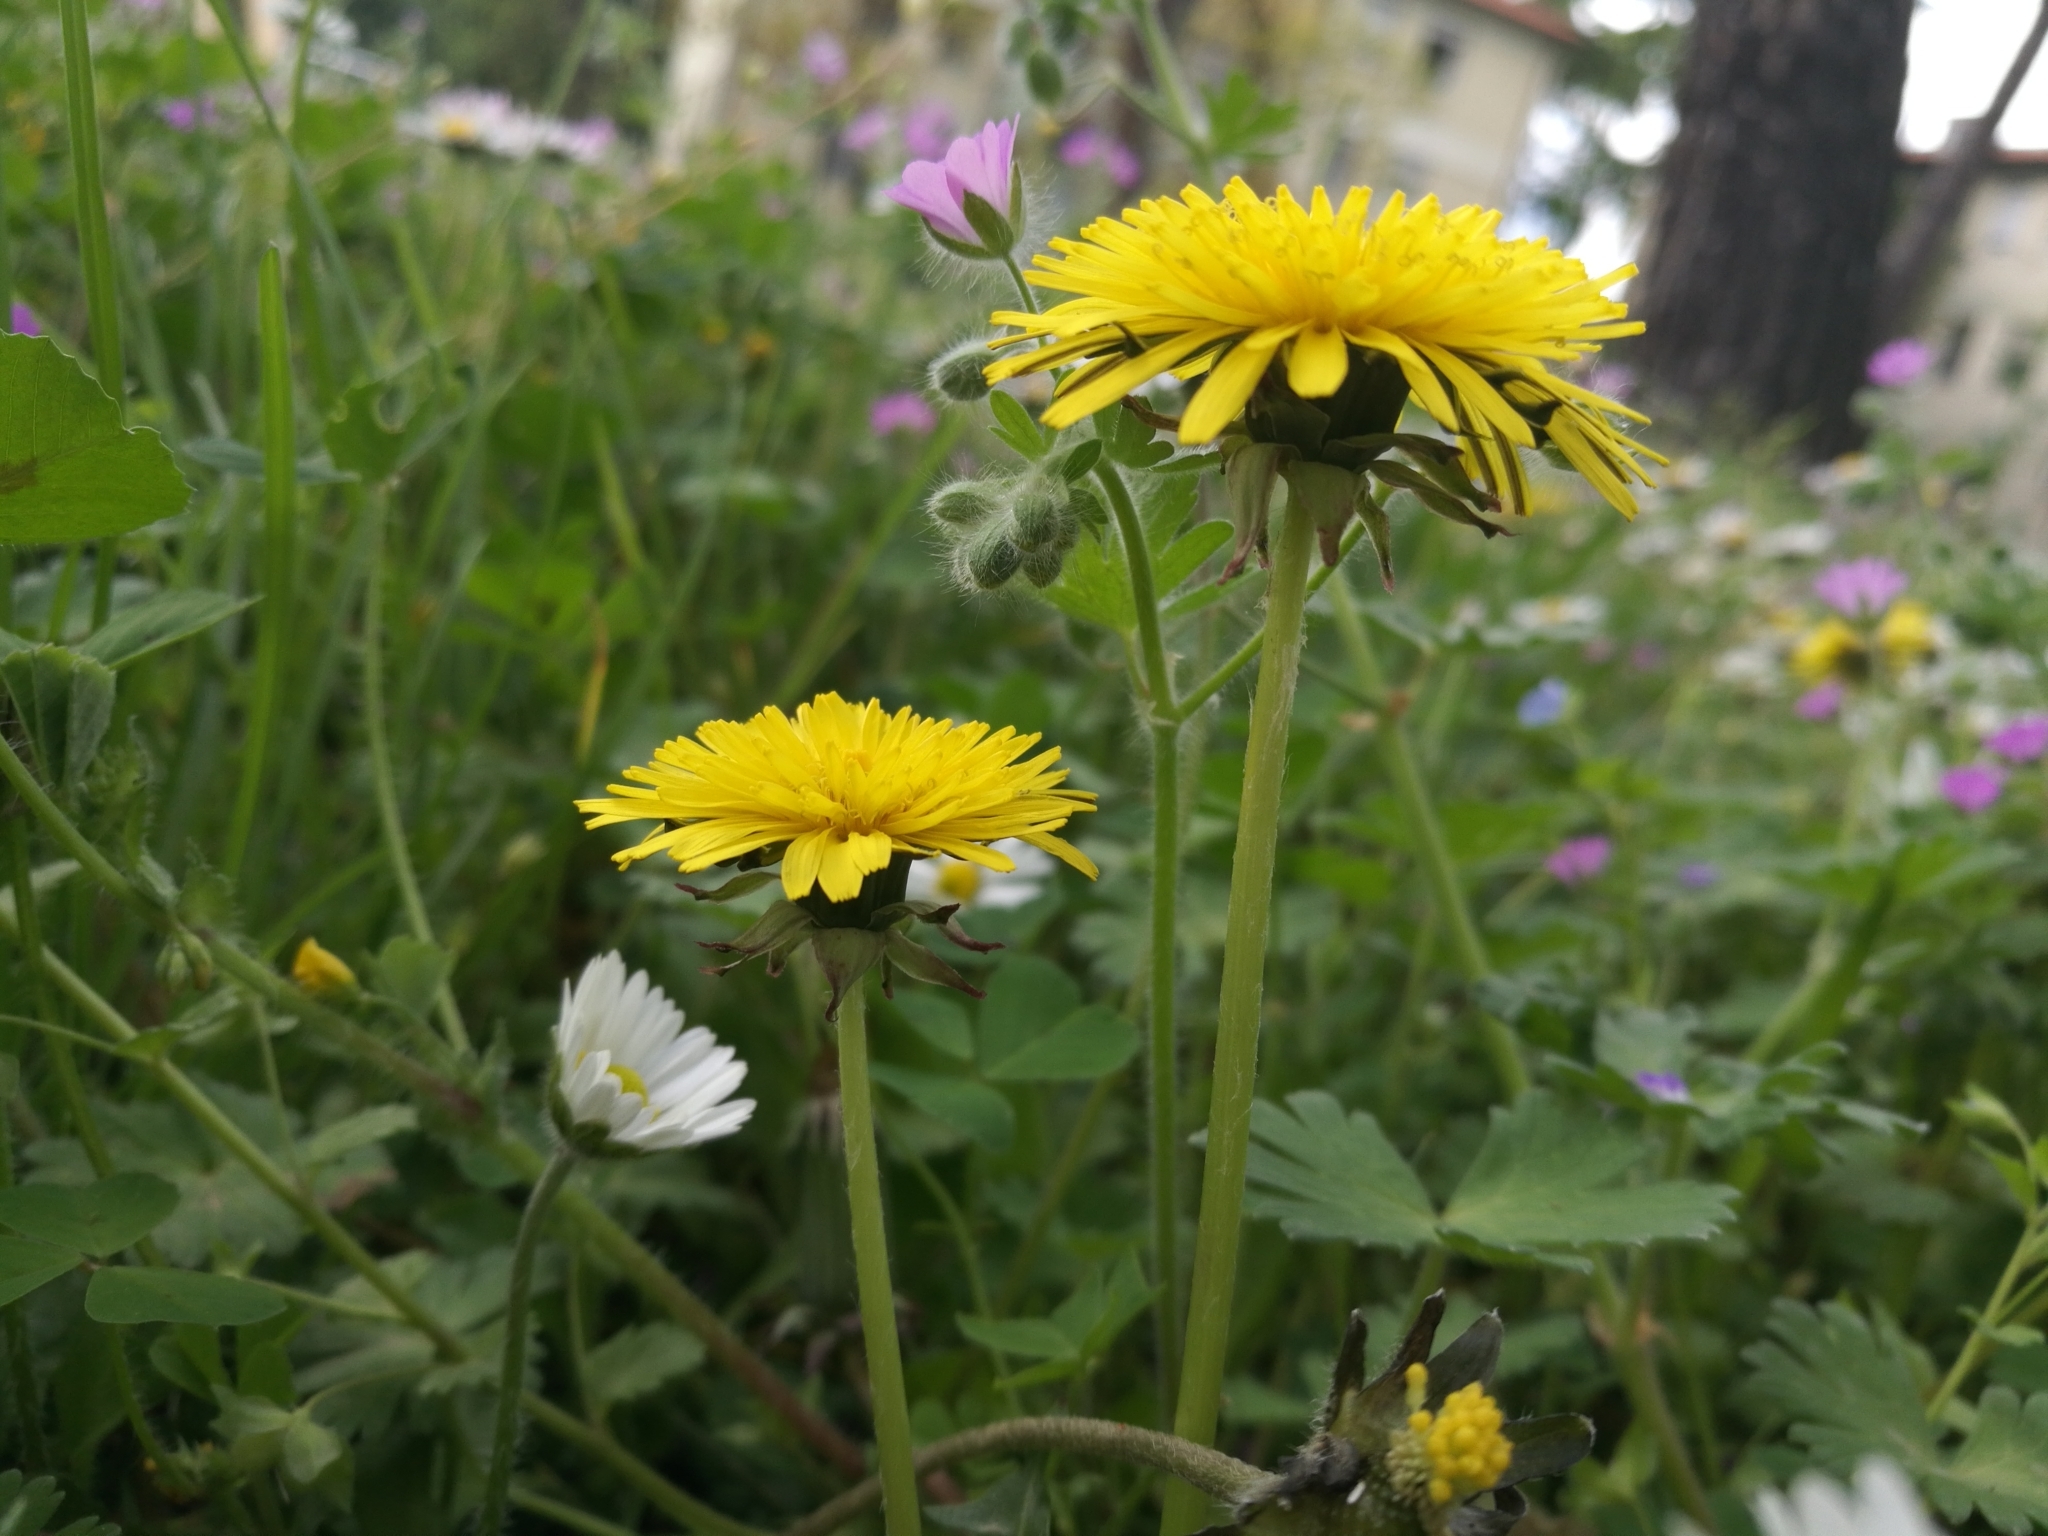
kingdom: Plantae
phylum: Tracheophyta
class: Magnoliopsida
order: Asterales
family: Asteraceae
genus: Taraxacum
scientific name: Taraxacum officinale
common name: Common dandelion
